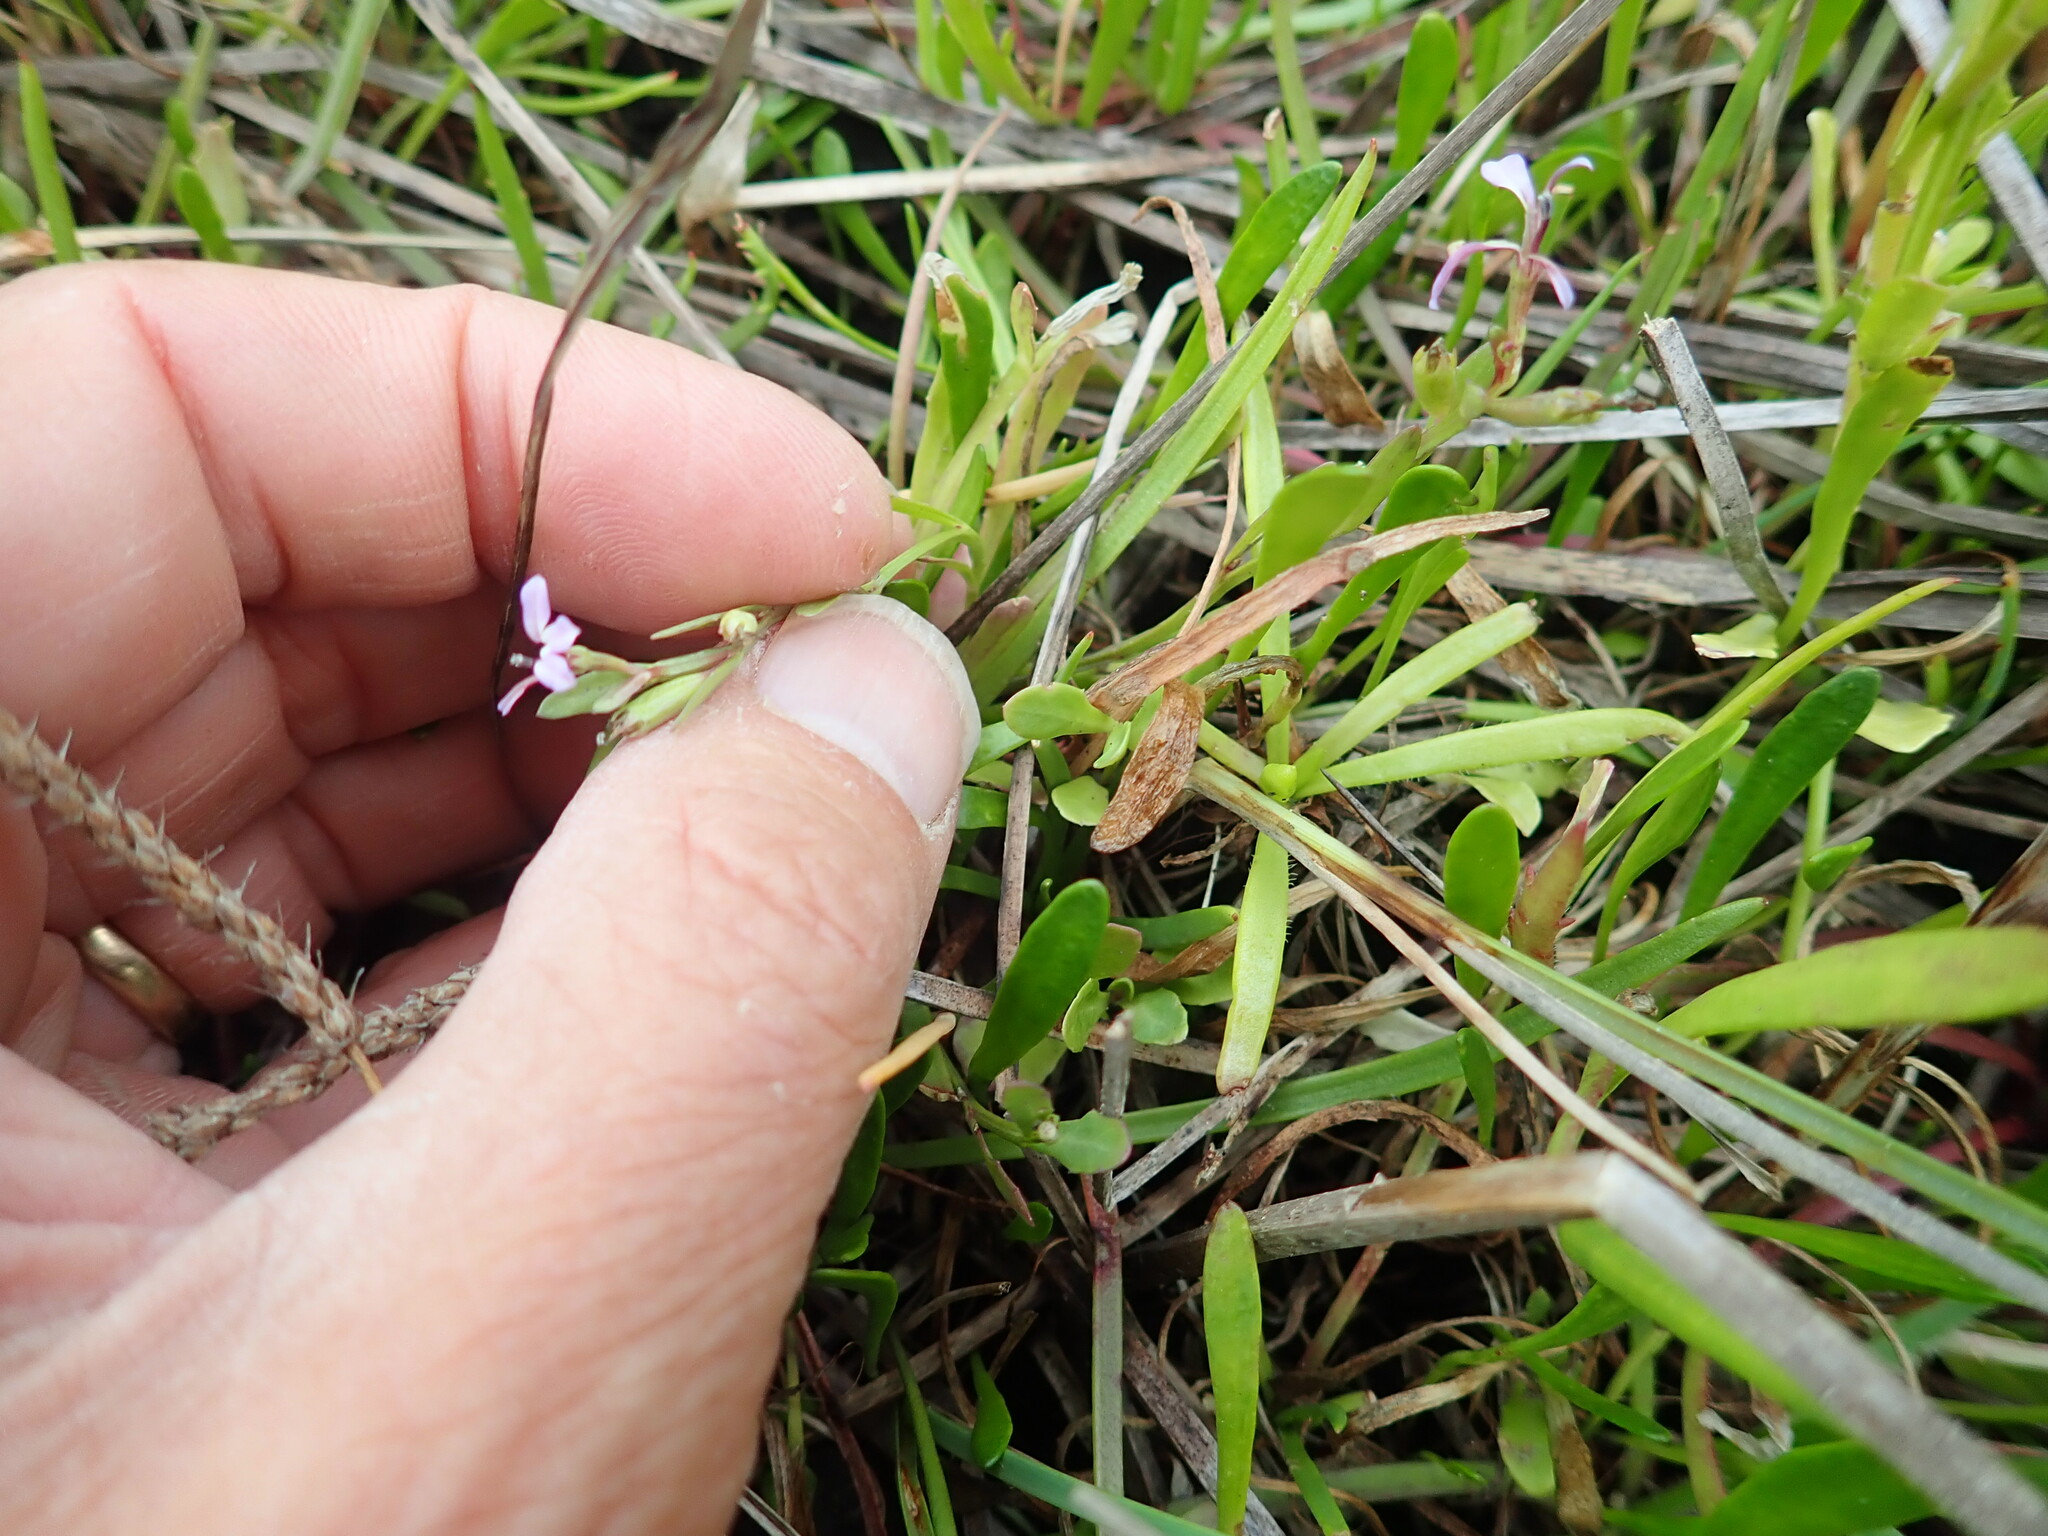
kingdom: Plantae
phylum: Tracheophyta
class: Magnoliopsida
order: Asterales
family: Campanulaceae
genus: Lobelia
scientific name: Lobelia anceps
